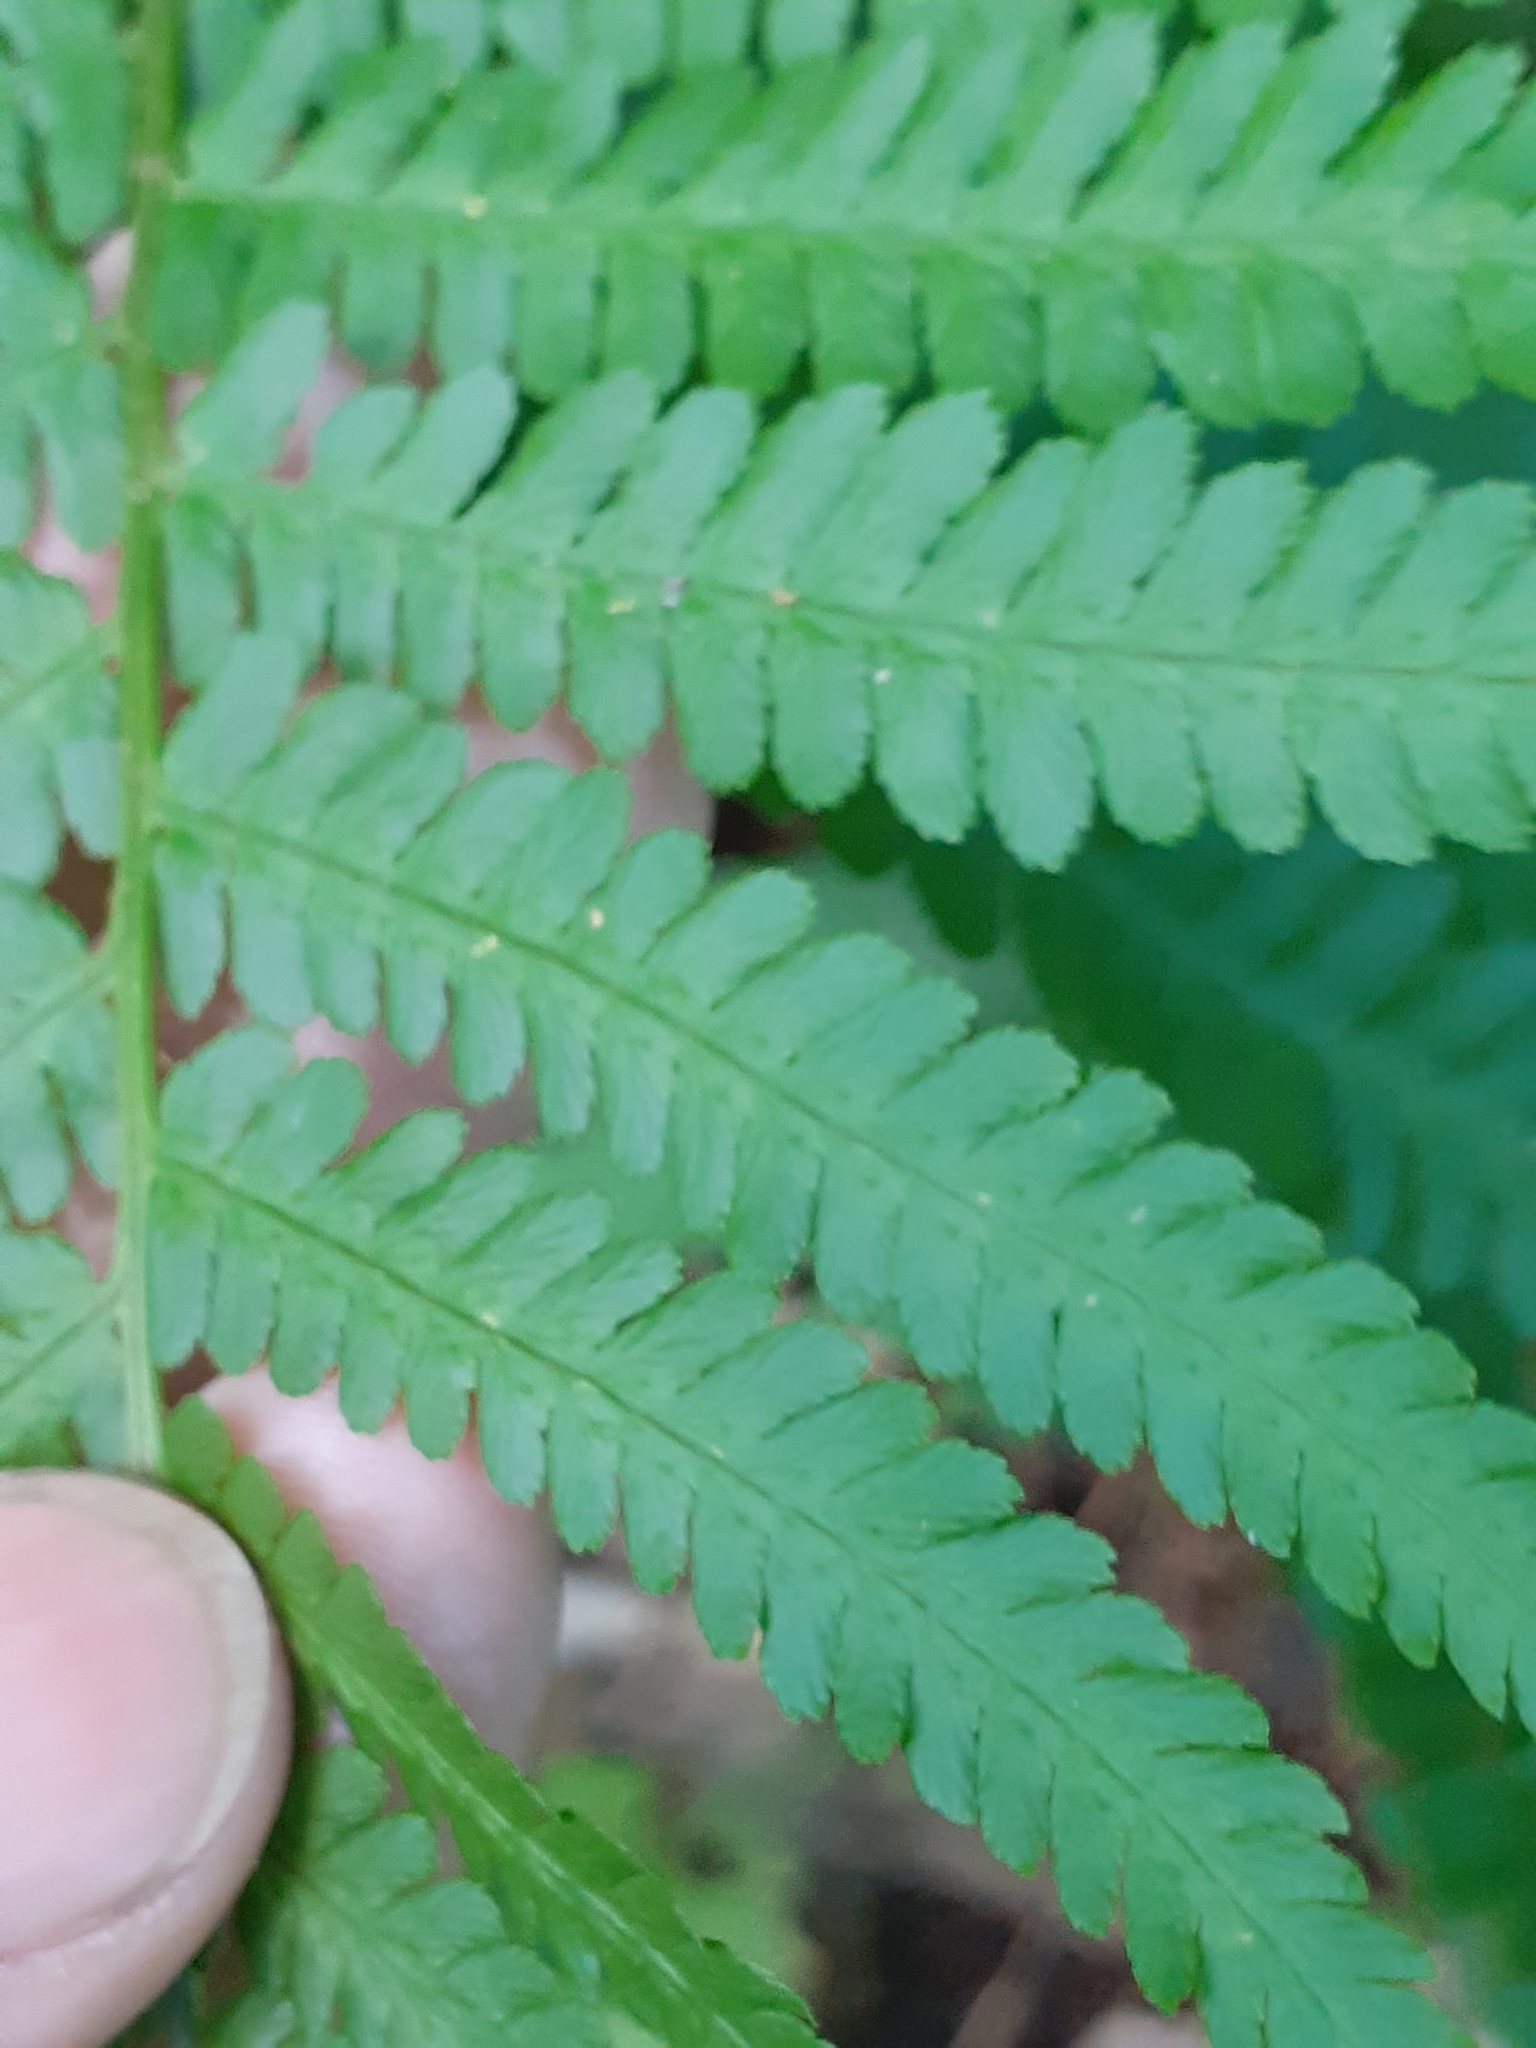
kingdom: Plantae
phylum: Tracheophyta
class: Polypodiopsida
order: Polypodiales
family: Dryopteridaceae
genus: Dryopteris
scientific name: Dryopteris filix-mas
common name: Male fern
